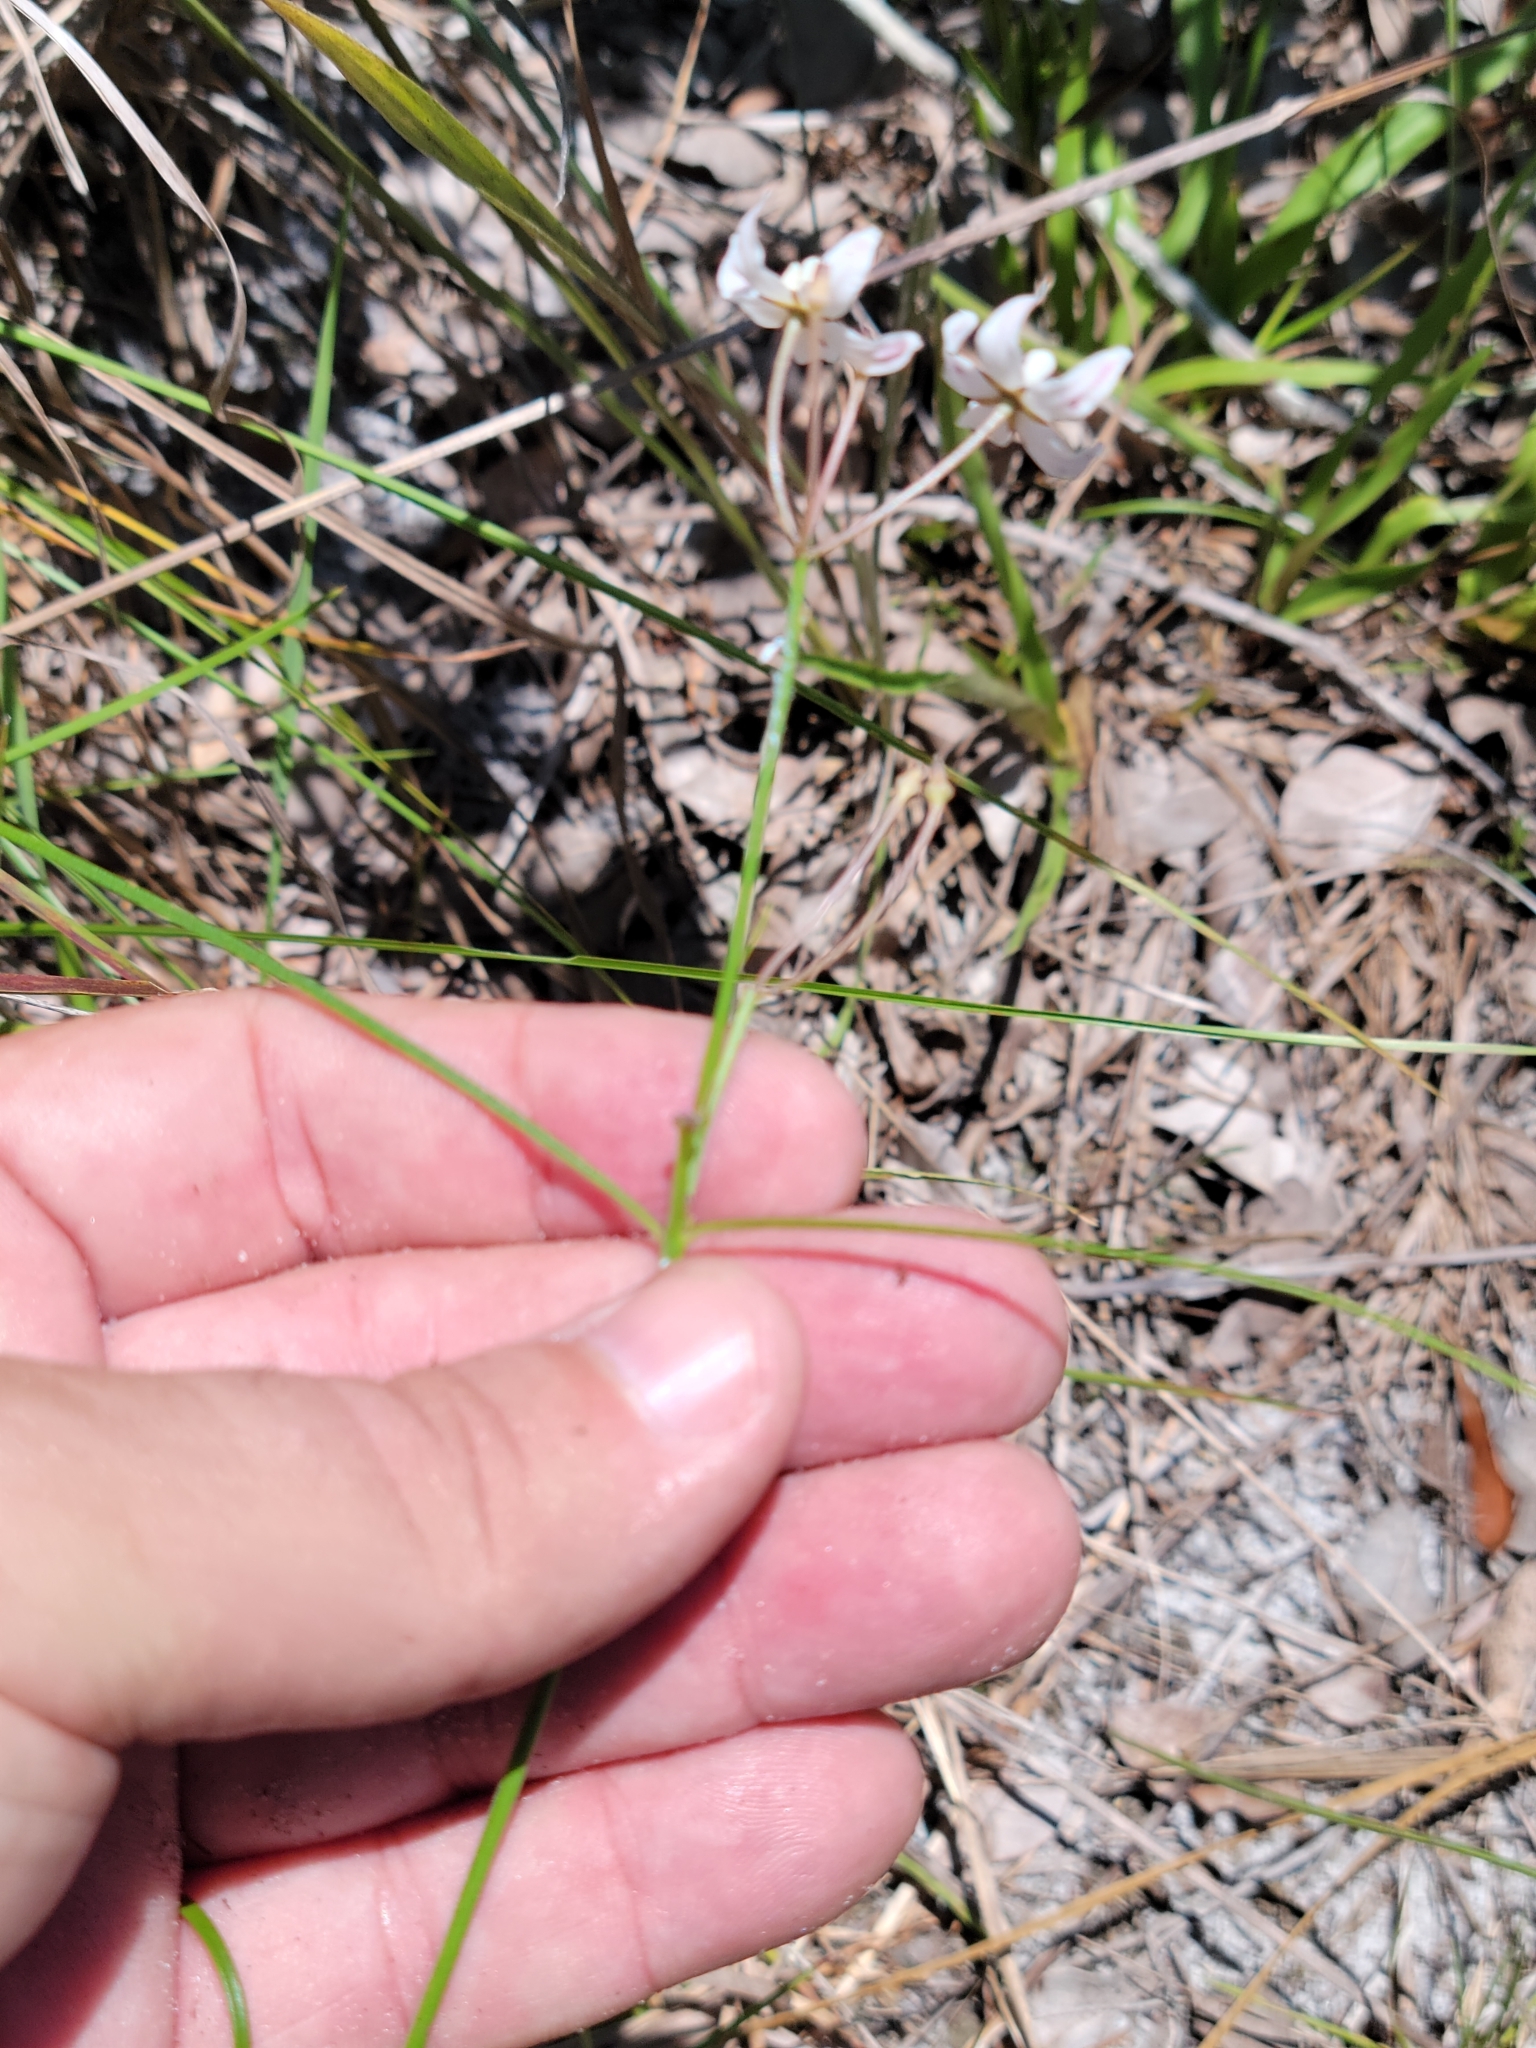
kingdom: Plantae
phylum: Tracheophyta
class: Magnoliopsida
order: Gentianales
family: Apocynaceae
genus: Asclepias
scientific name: Asclepias feayi
